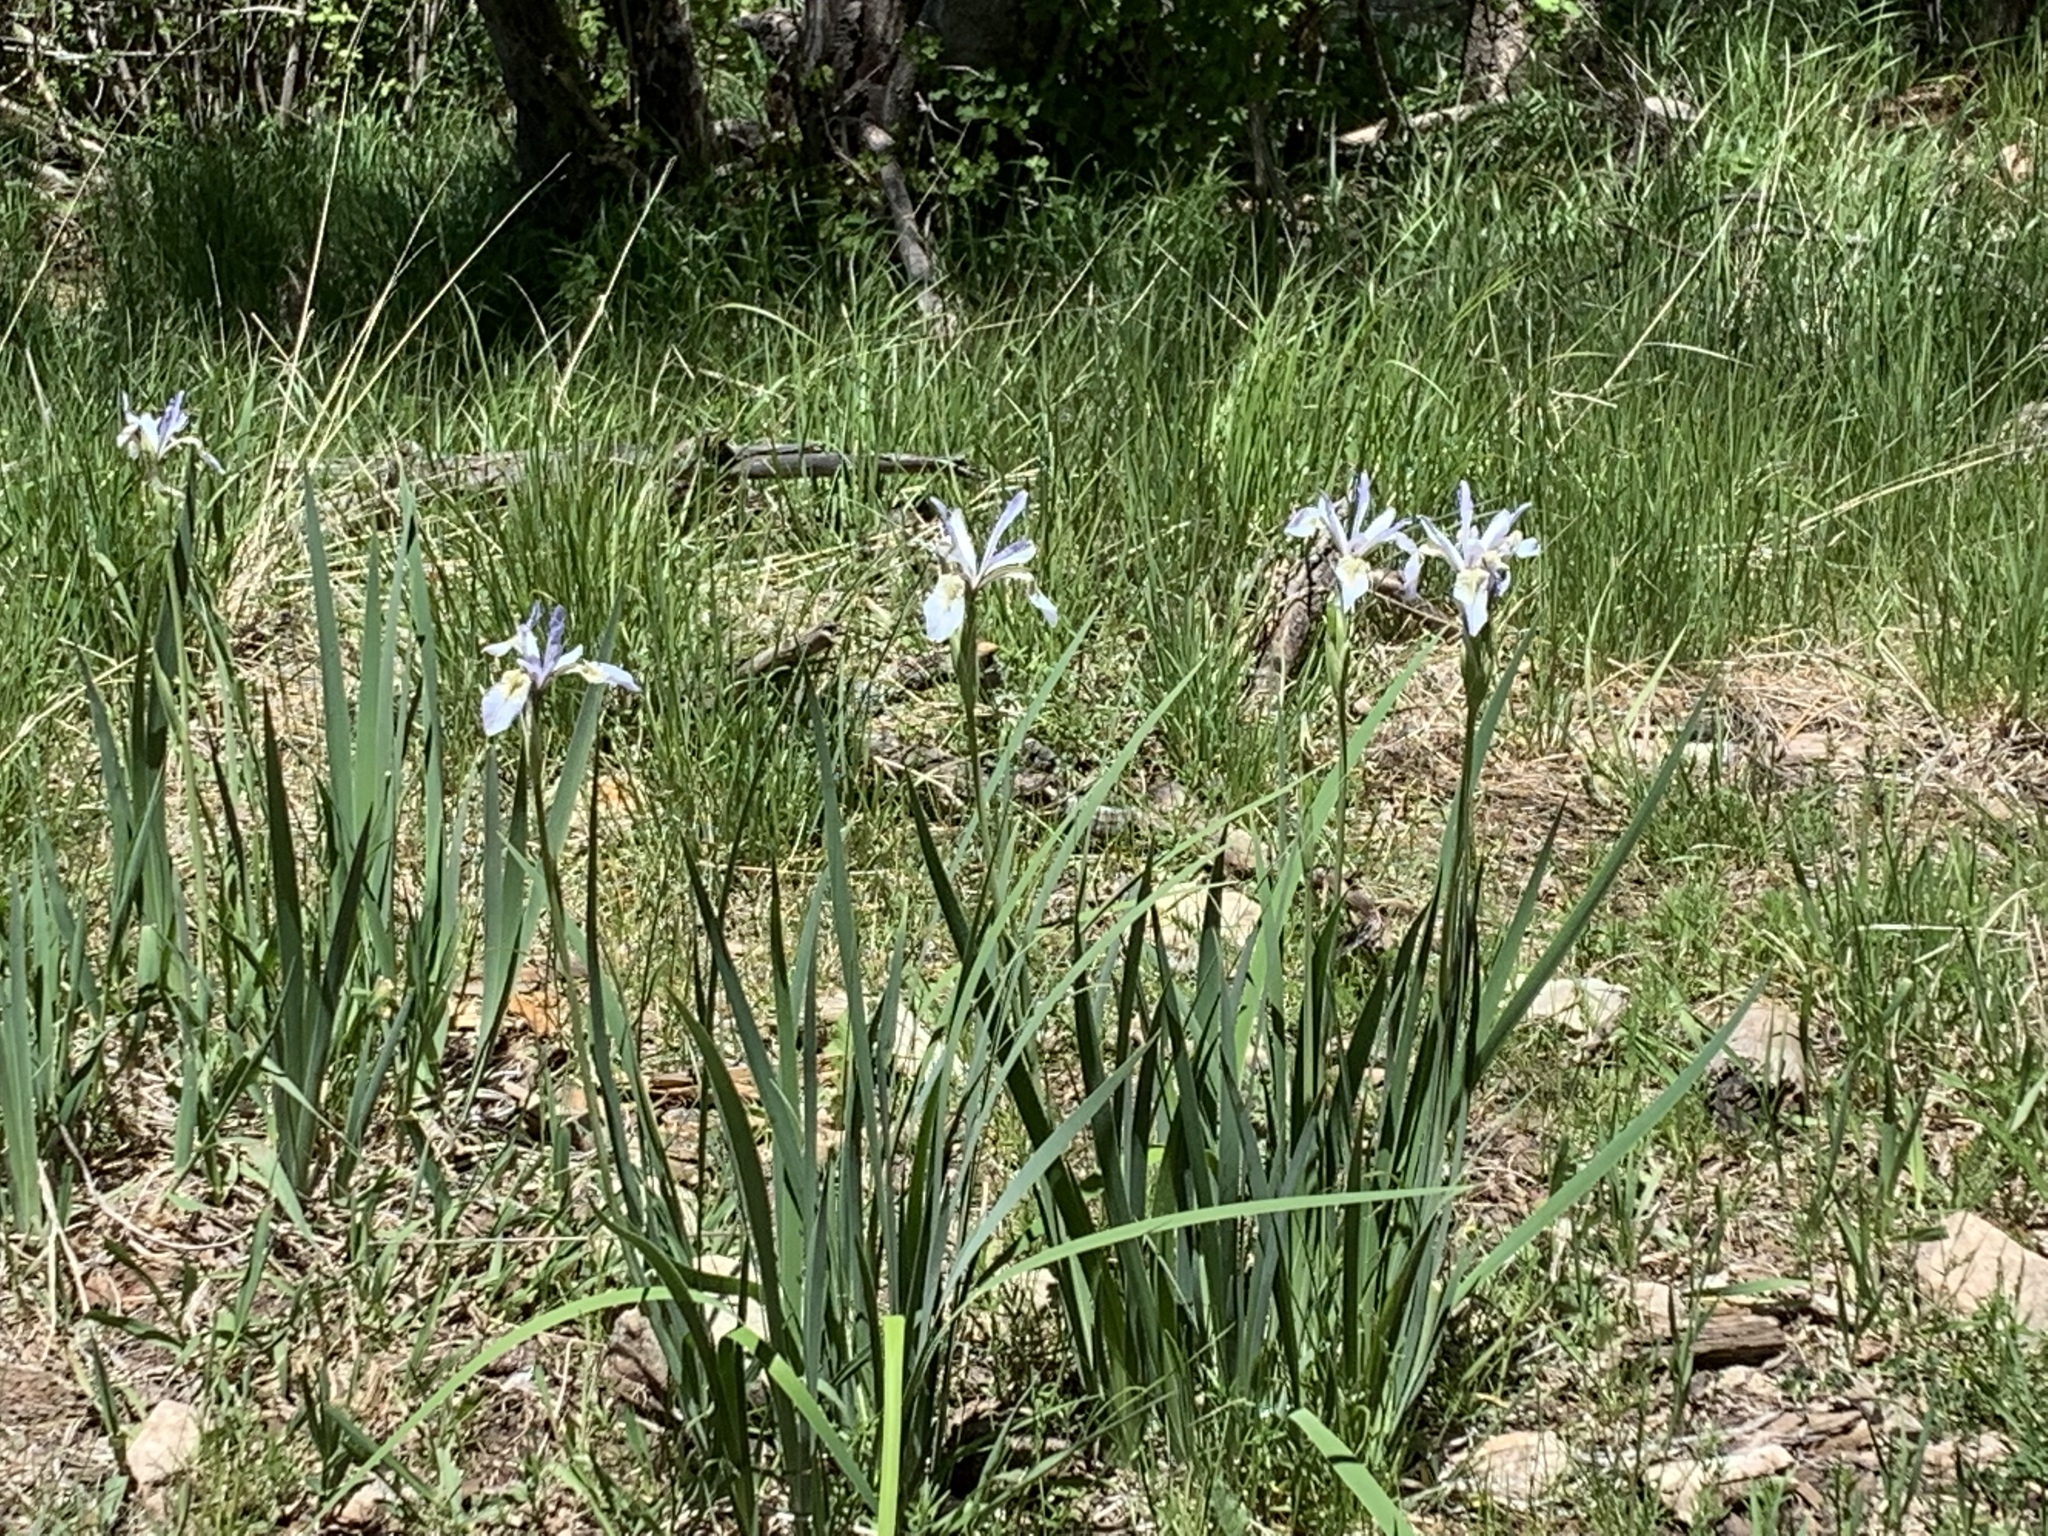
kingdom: Plantae
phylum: Tracheophyta
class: Liliopsida
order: Asparagales
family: Iridaceae
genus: Iris
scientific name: Iris missouriensis
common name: Rocky mountain iris
